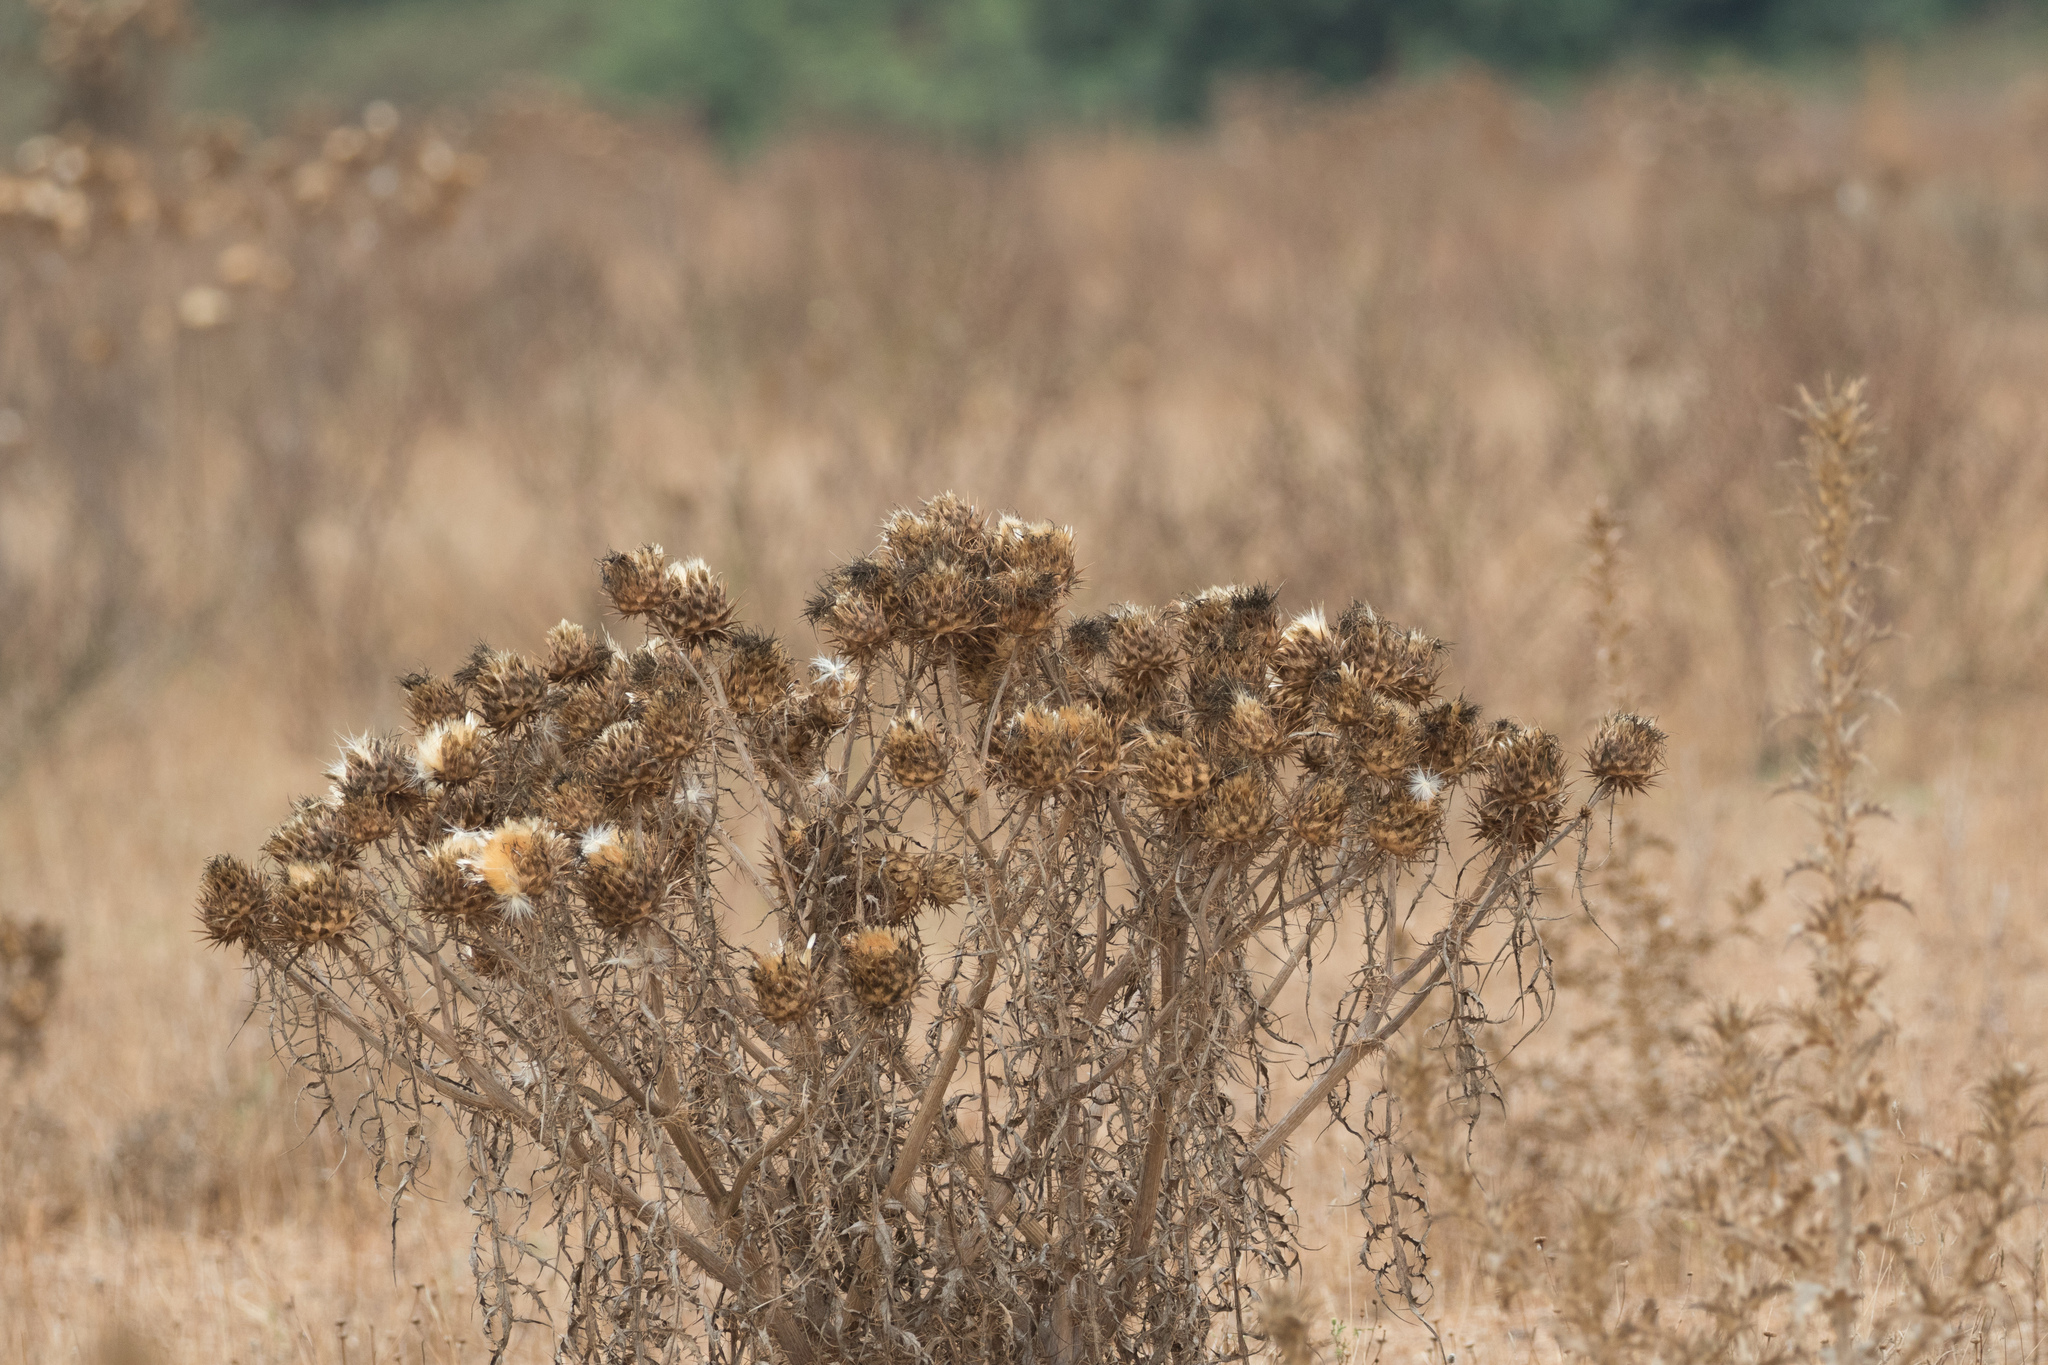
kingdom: Plantae
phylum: Tracheophyta
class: Magnoliopsida
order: Asterales
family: Asteraceae
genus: Cynara
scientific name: Cynara cardunculus
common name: Globe artichoke
